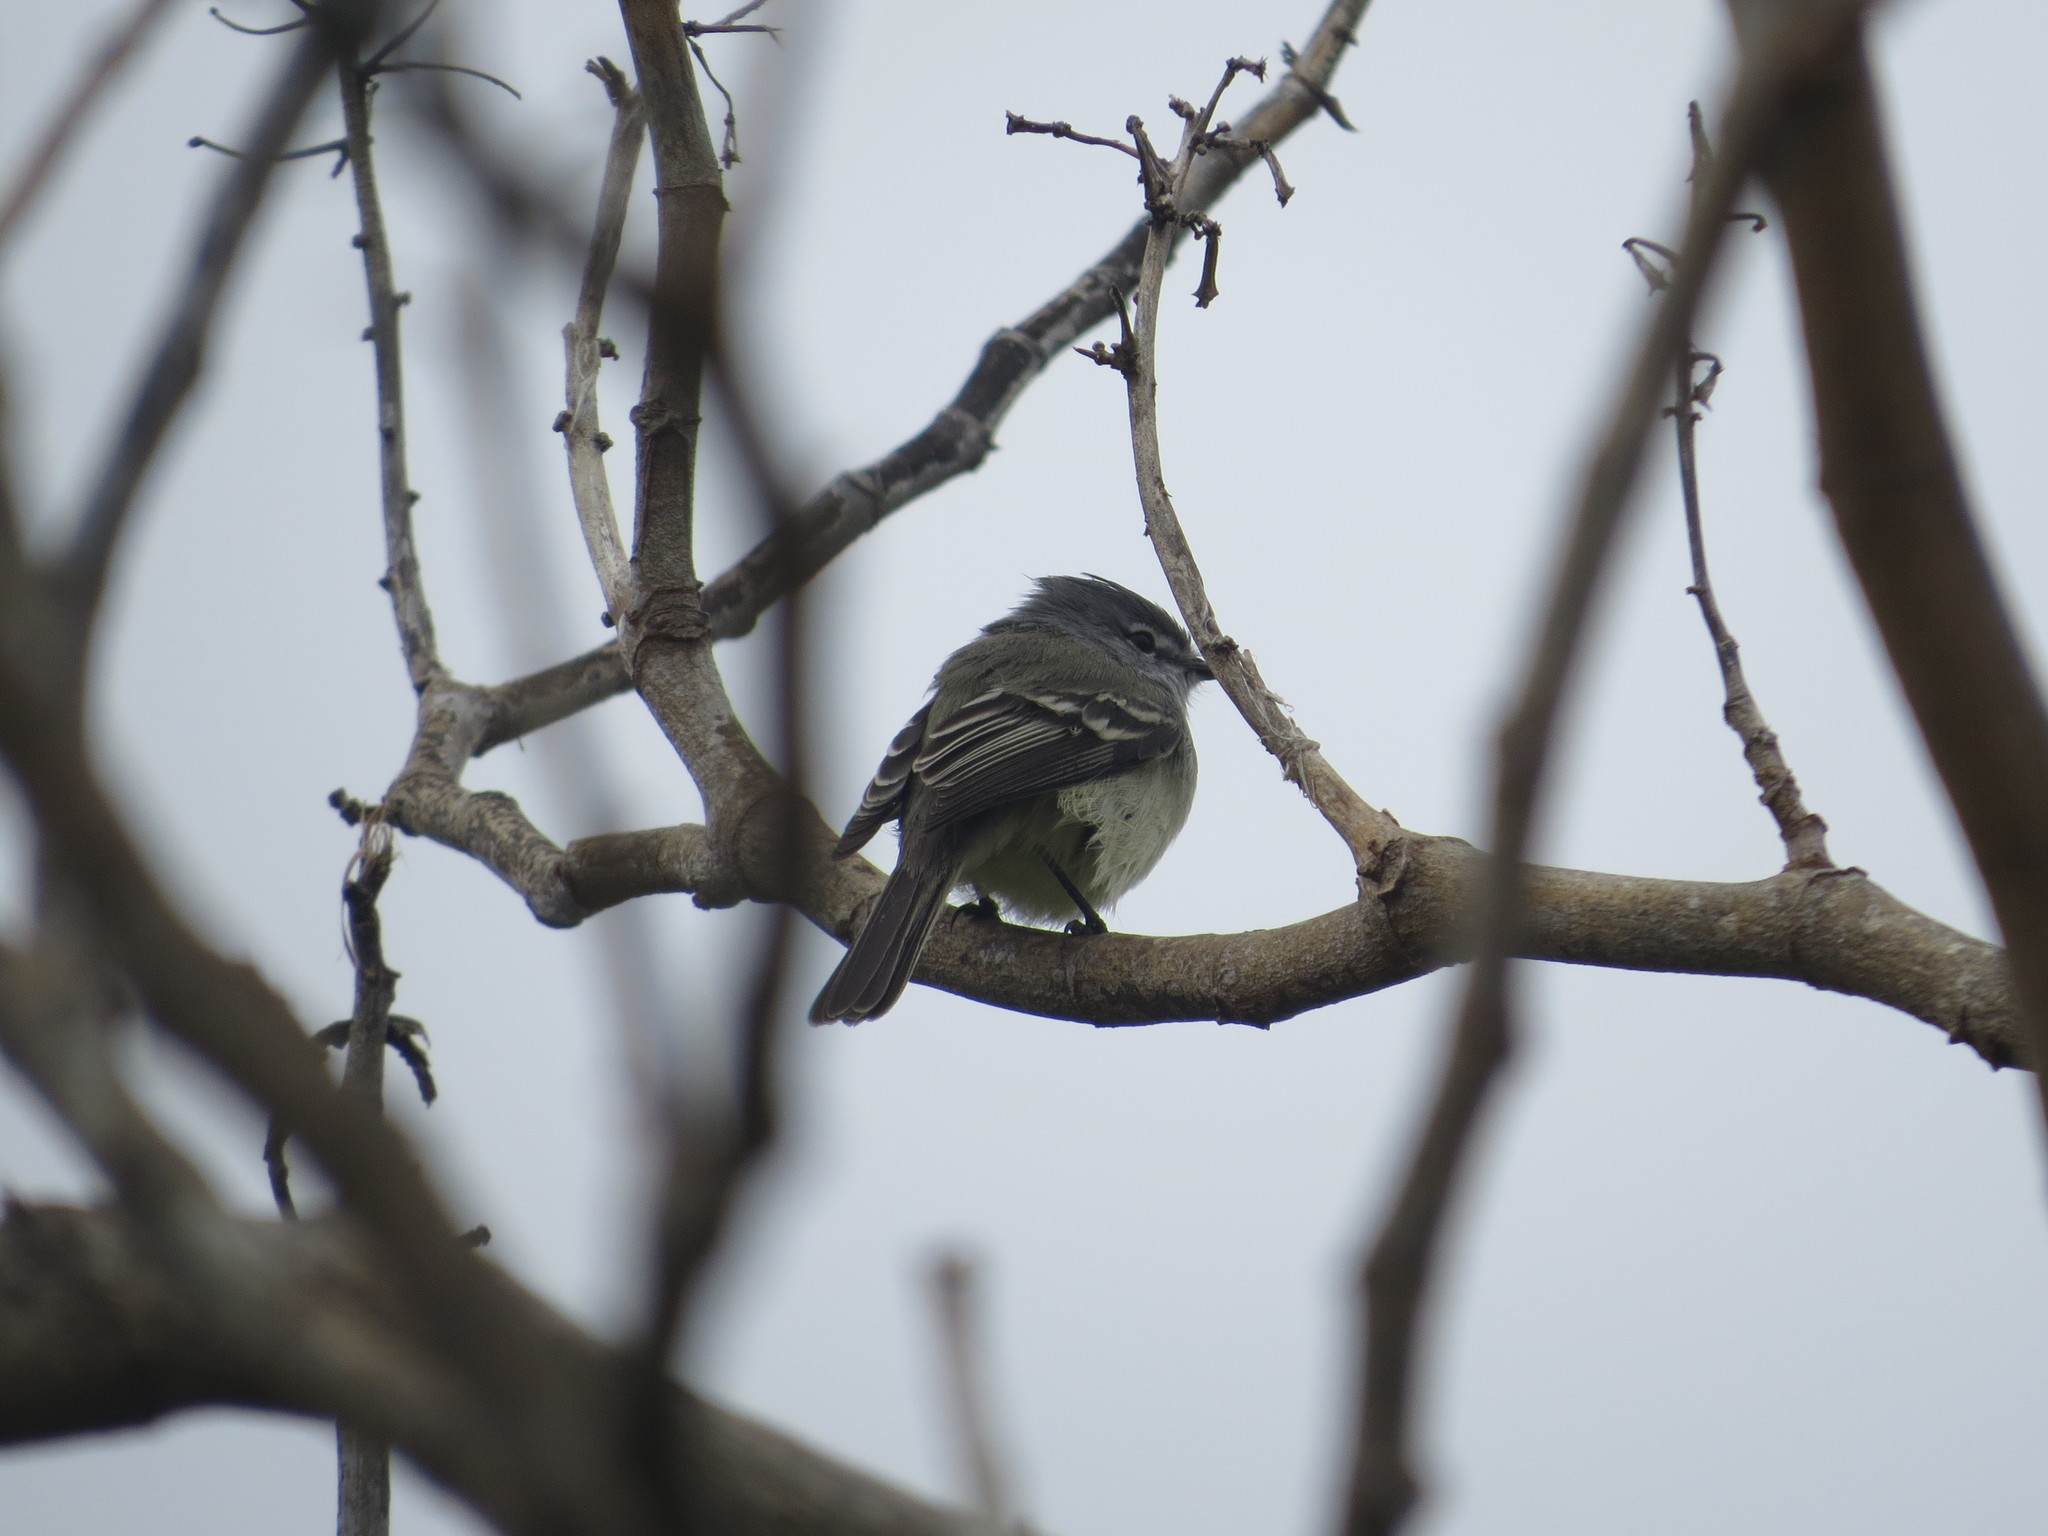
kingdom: Animalia
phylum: Chordata
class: Aves
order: Passeriformes
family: Tyrannidae
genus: Serpophaga
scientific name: Serpophaga subcristata
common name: White-crested tyrannulet
